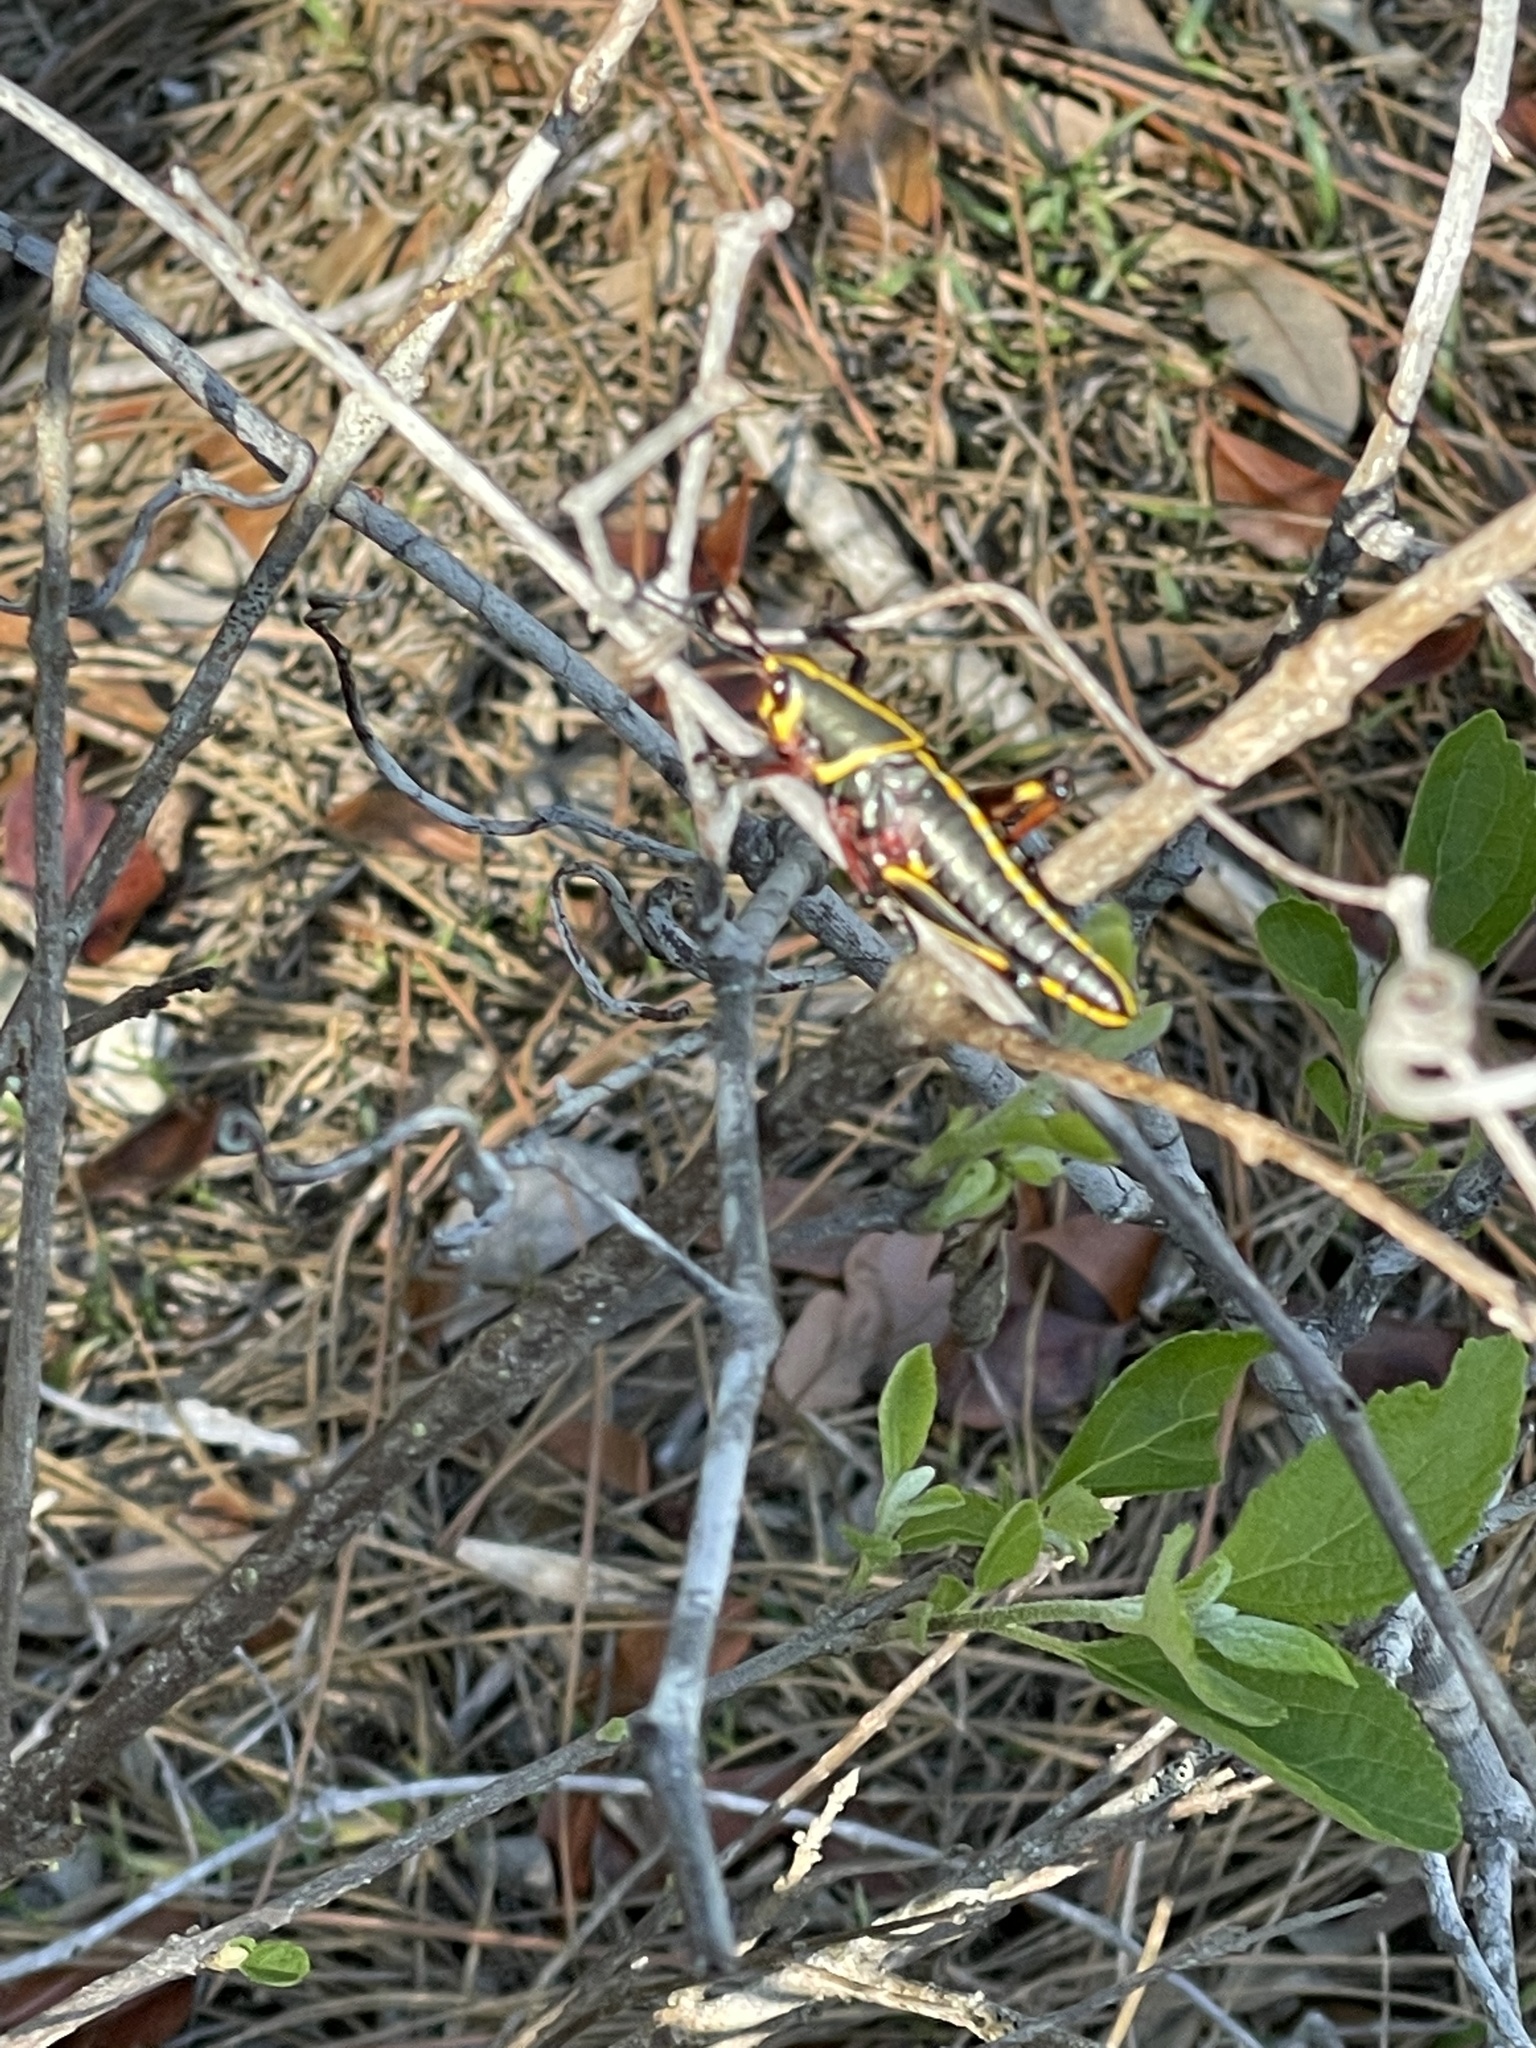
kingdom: Animalia
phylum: Arthropoda
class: Insecta
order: Orthoptera
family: Romaleidae
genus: Romalea
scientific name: Romalea microptera
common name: Eastern lubber grasshopper
